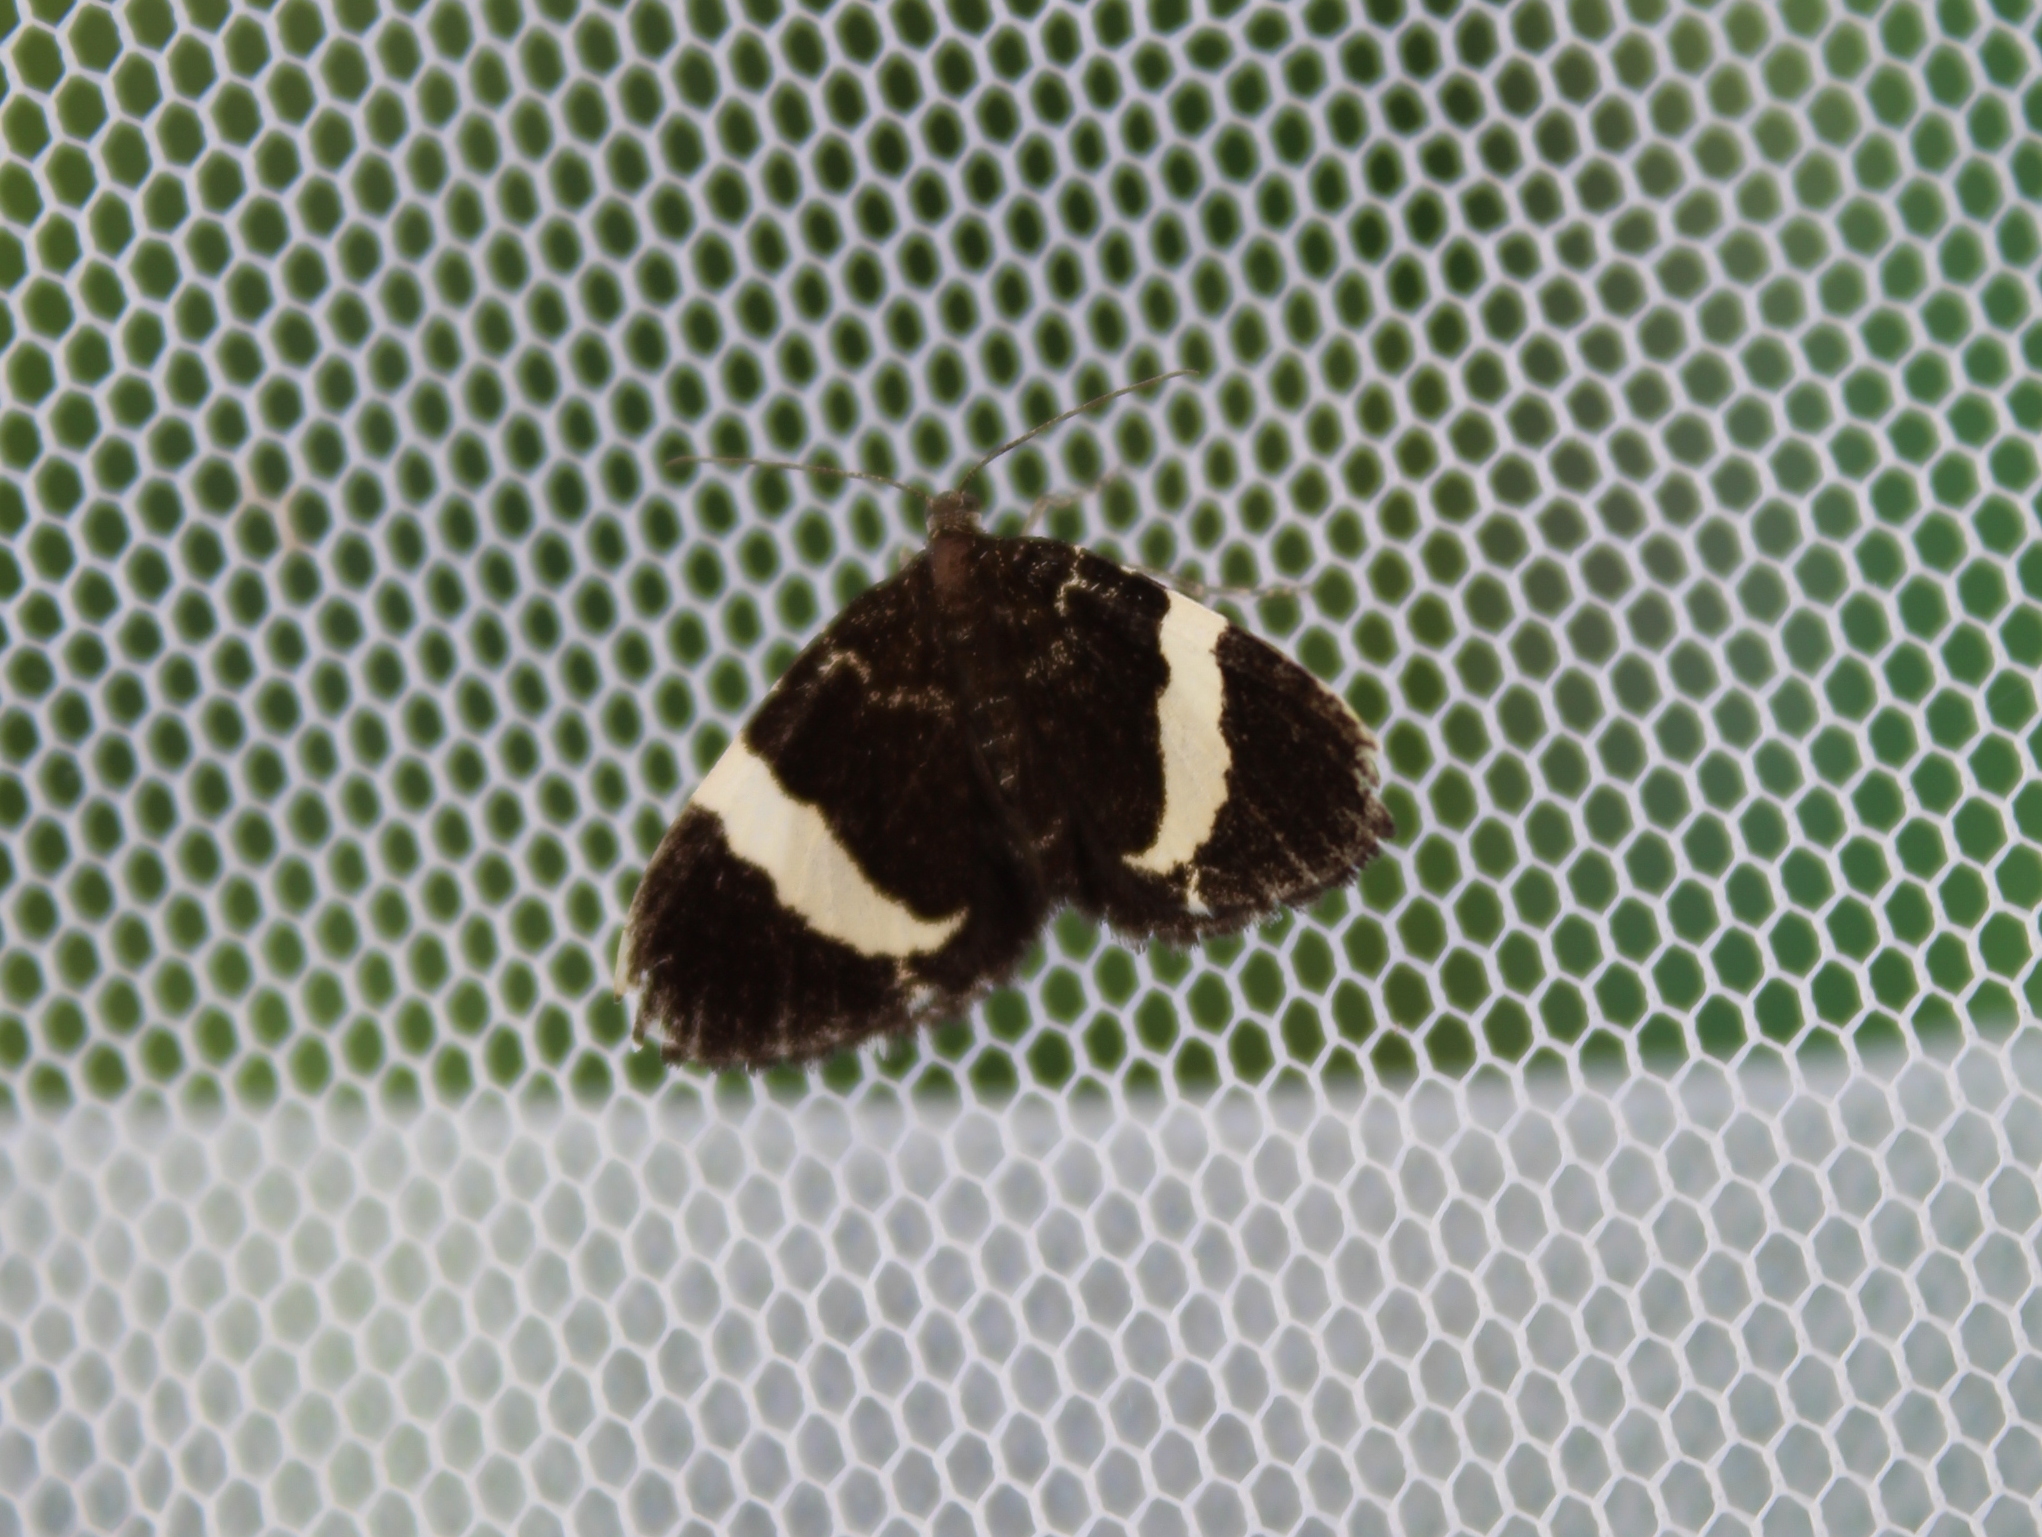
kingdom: Animalia
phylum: Arthropoda
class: Insecta
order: Lepidoptera
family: Geometridae
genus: Trichodezia
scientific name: Trichodezia albovittata
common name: White striped black
